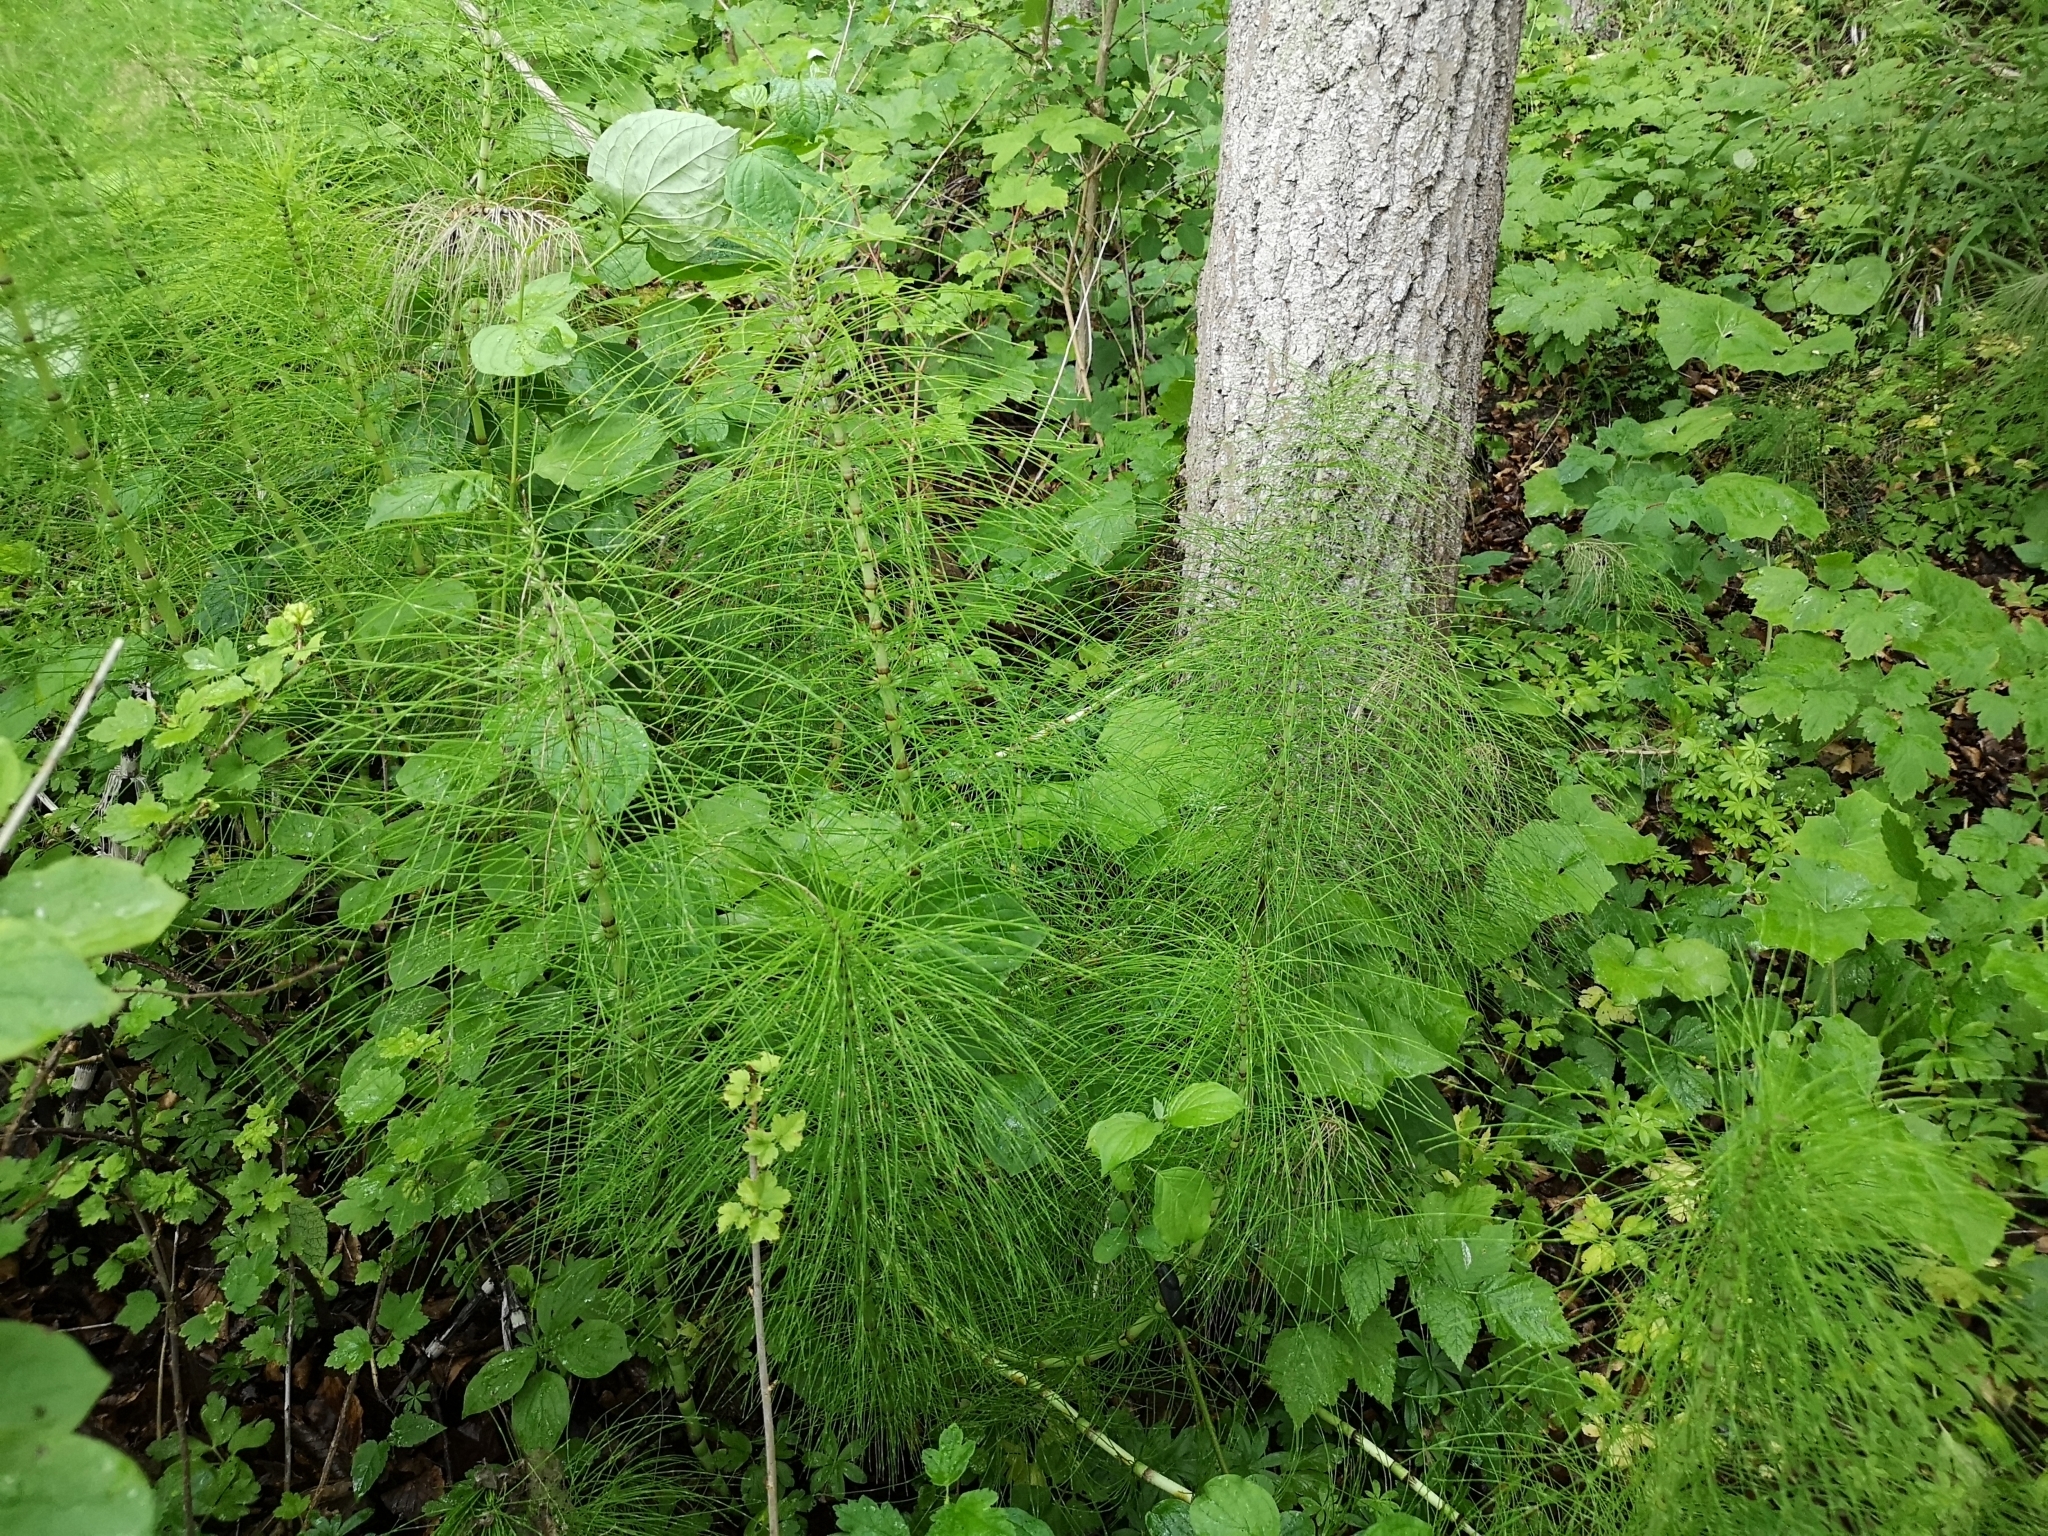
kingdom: Plantae
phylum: Tracheophyta
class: Polypodiopsida
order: Equisetales
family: Equisetaceae
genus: Equisetum
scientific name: Equisetum telmateia
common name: Great horsetail
